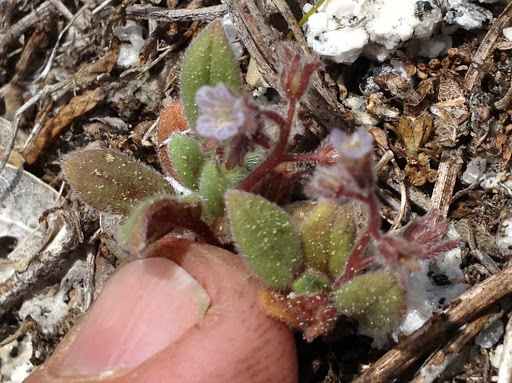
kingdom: Plantae
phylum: Tracheophyta
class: Magnoliopsida
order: Boraginales
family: Hydrophyllaceae
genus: Phacelia
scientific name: Phacelia eisenii
